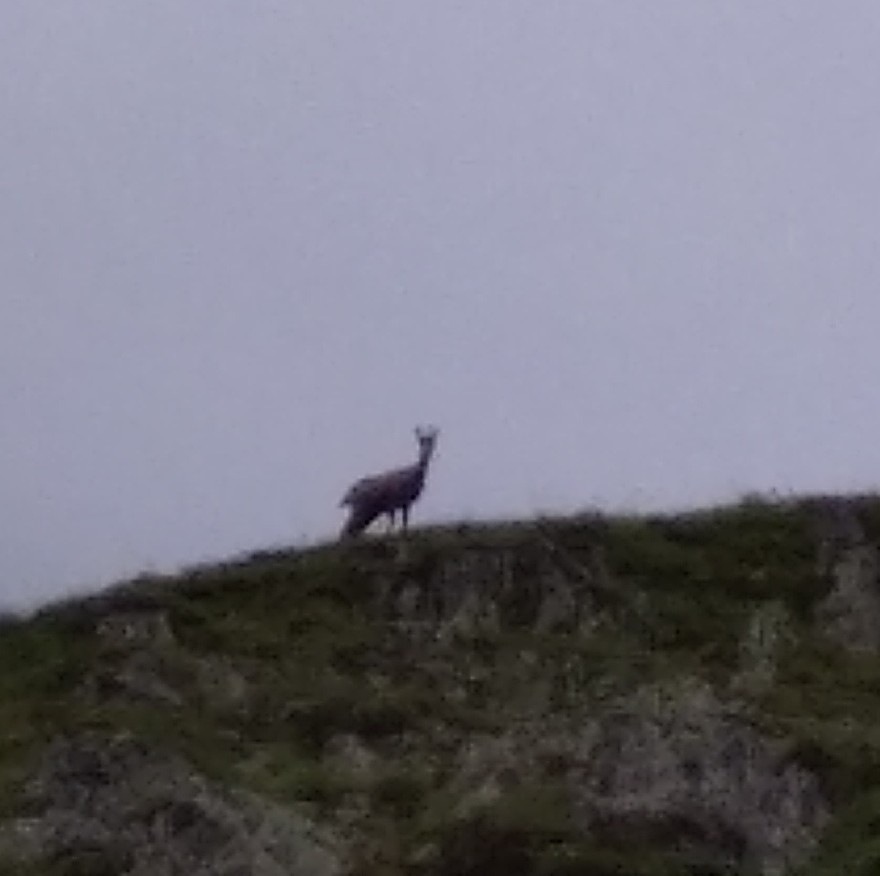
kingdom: Animalia
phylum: Chordata
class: Mammalia
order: Artiodactyla
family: Bovidae
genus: Rupicapra
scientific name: Rupicapra rupicapra
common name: Chamois
